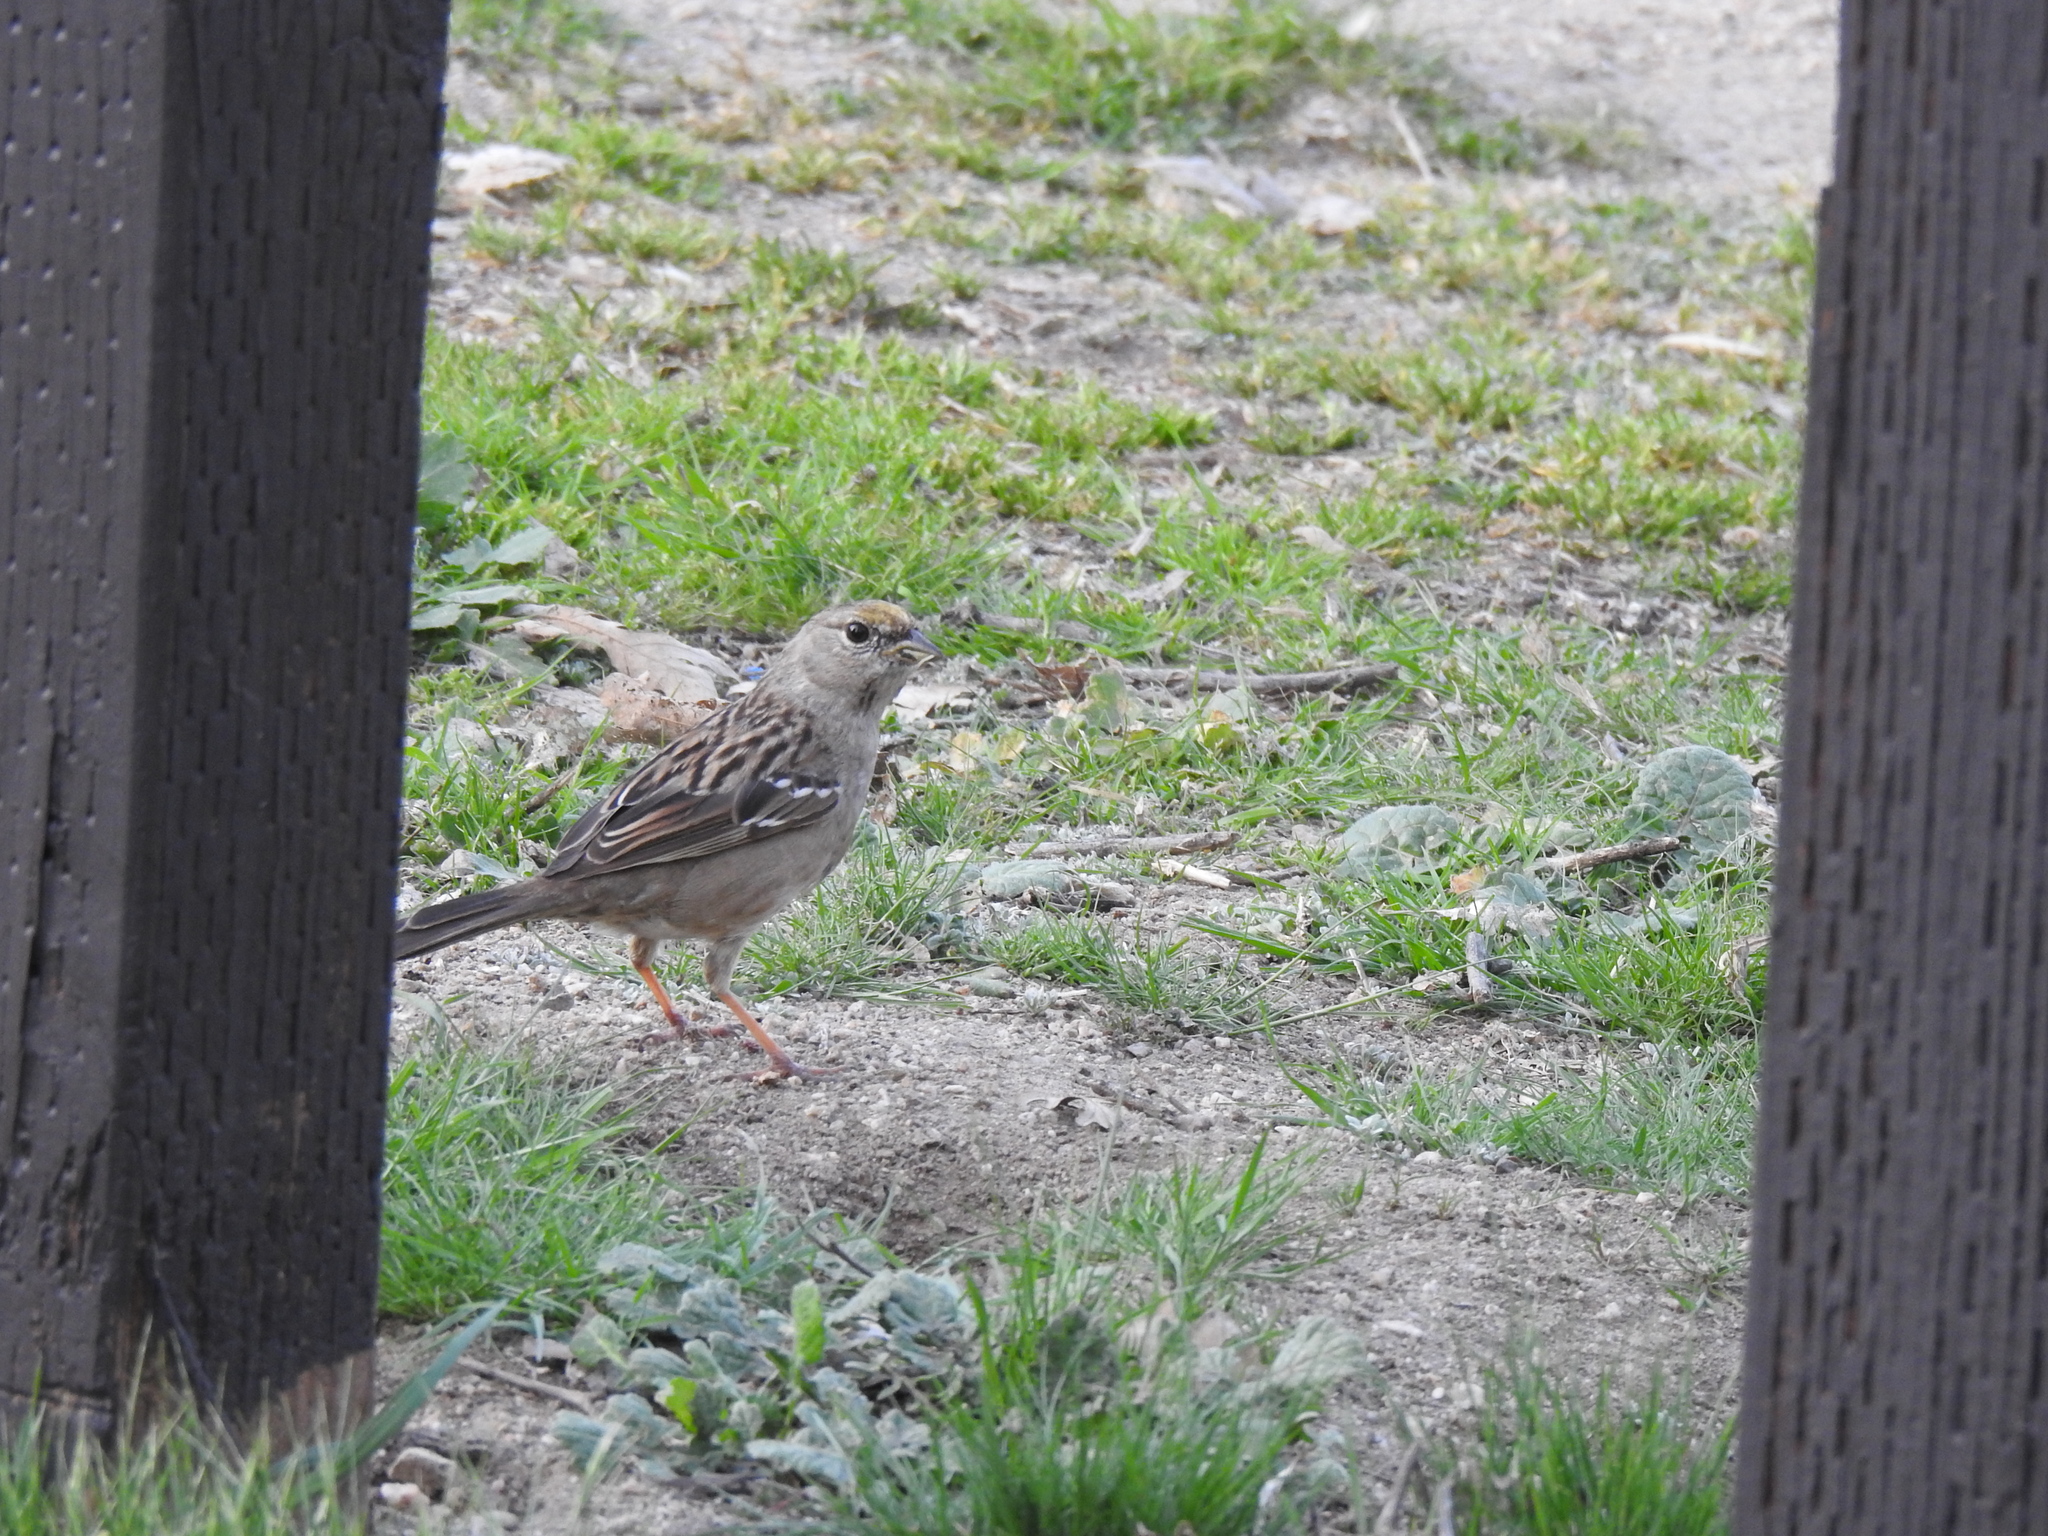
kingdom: Animalia
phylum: Chordata
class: Aves
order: Passeriformes
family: Passerellidae
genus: Zonotrichia
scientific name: Zonotrichia atricapilla
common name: Golden-crowned sparrow
